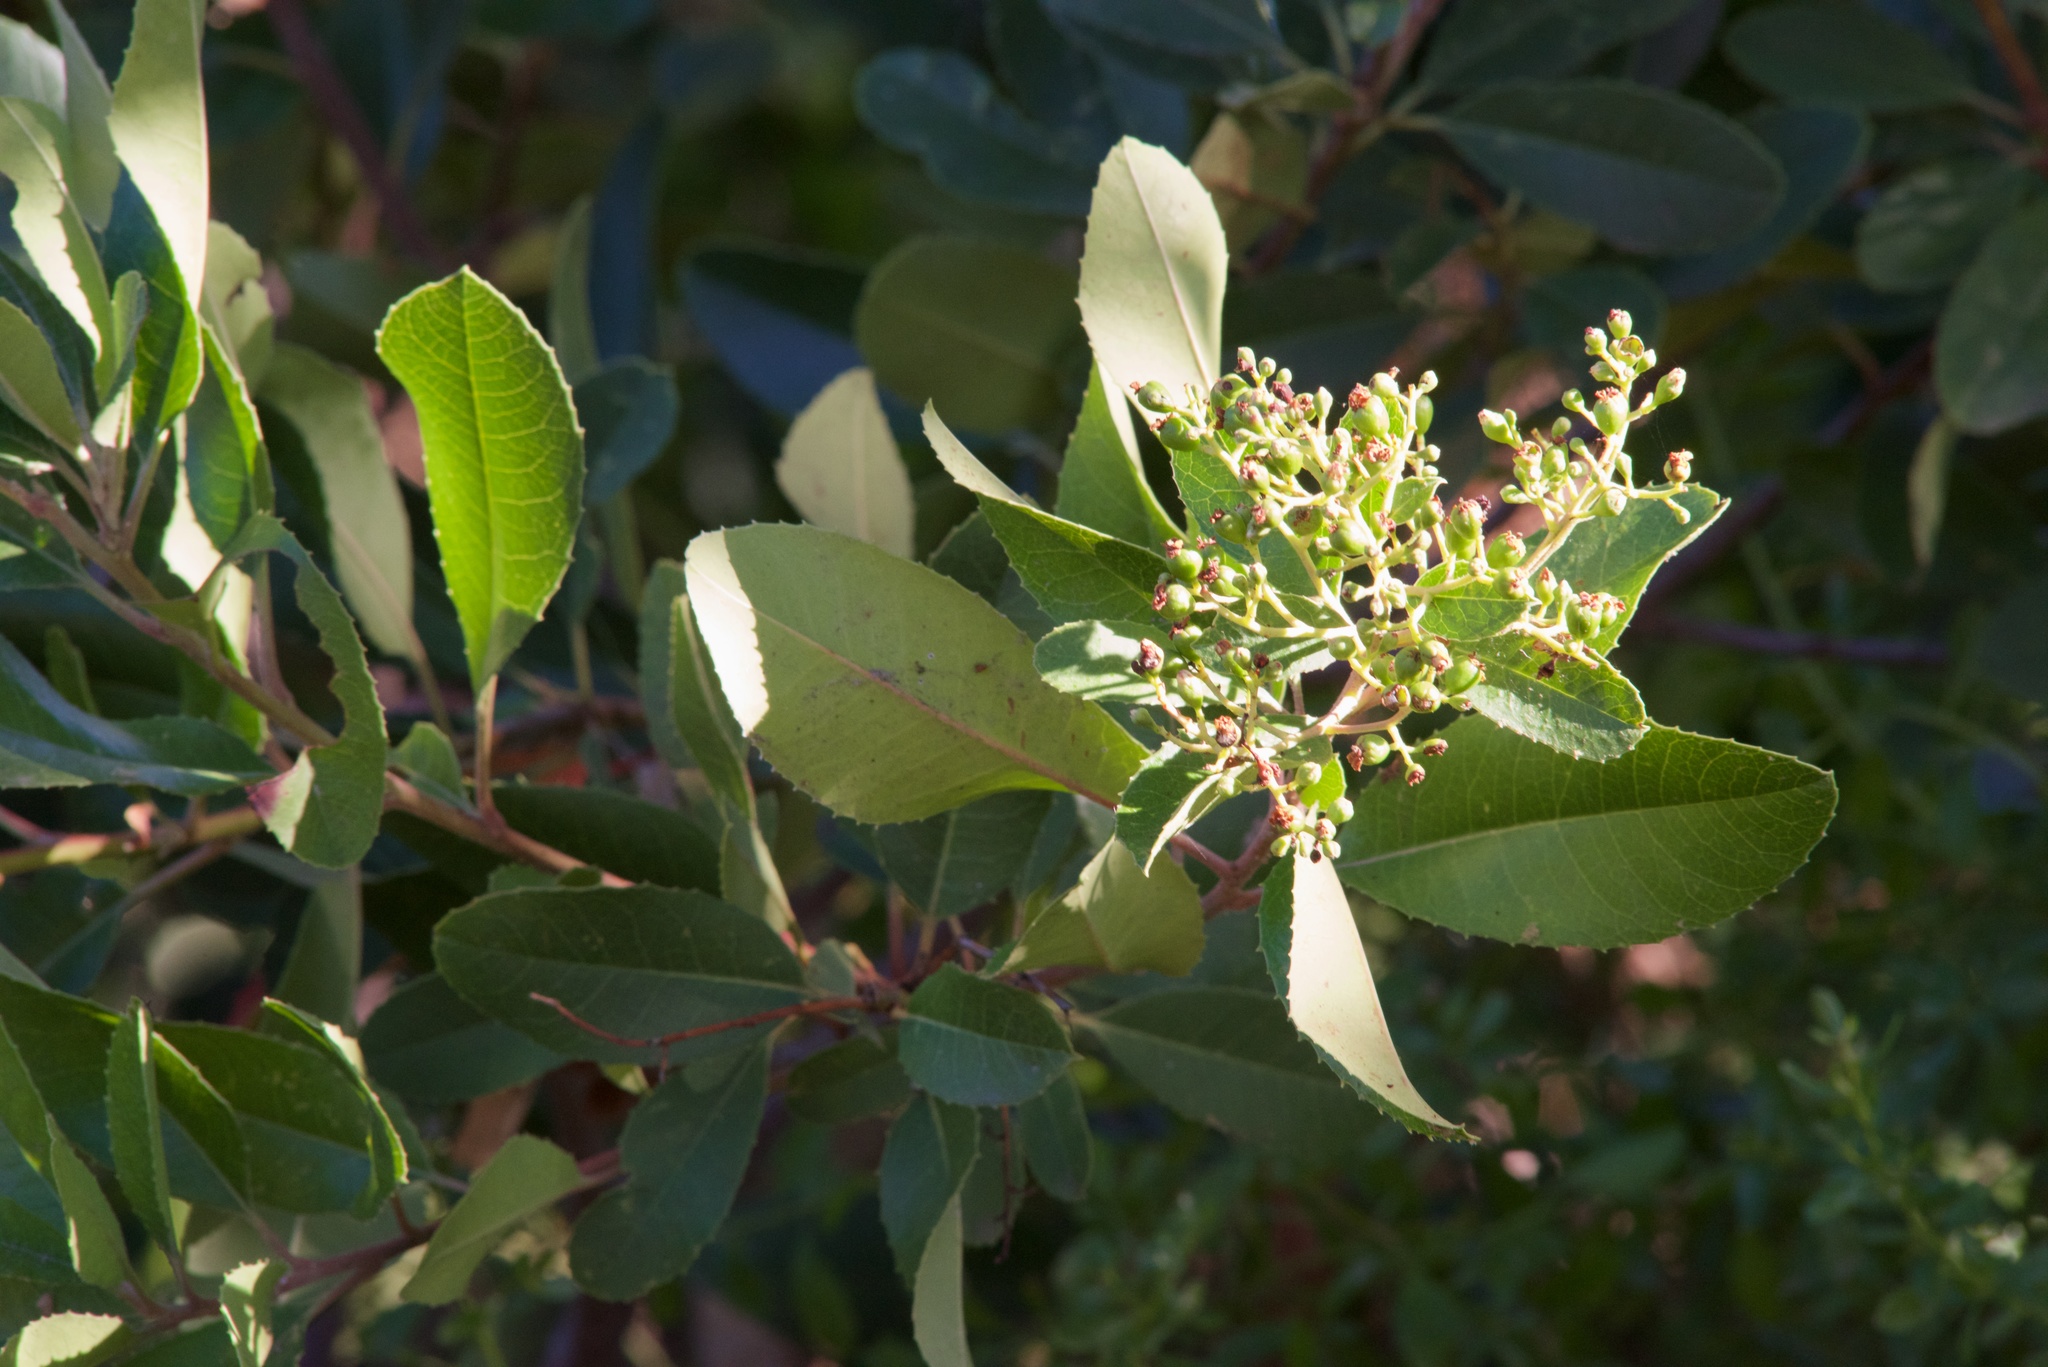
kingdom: Plantae
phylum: Tracheophyta
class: Magnoliopsida
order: Rosales
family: Rosaceae
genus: Heteromeles
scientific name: Heteromeles arbutifolia
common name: California-holly
